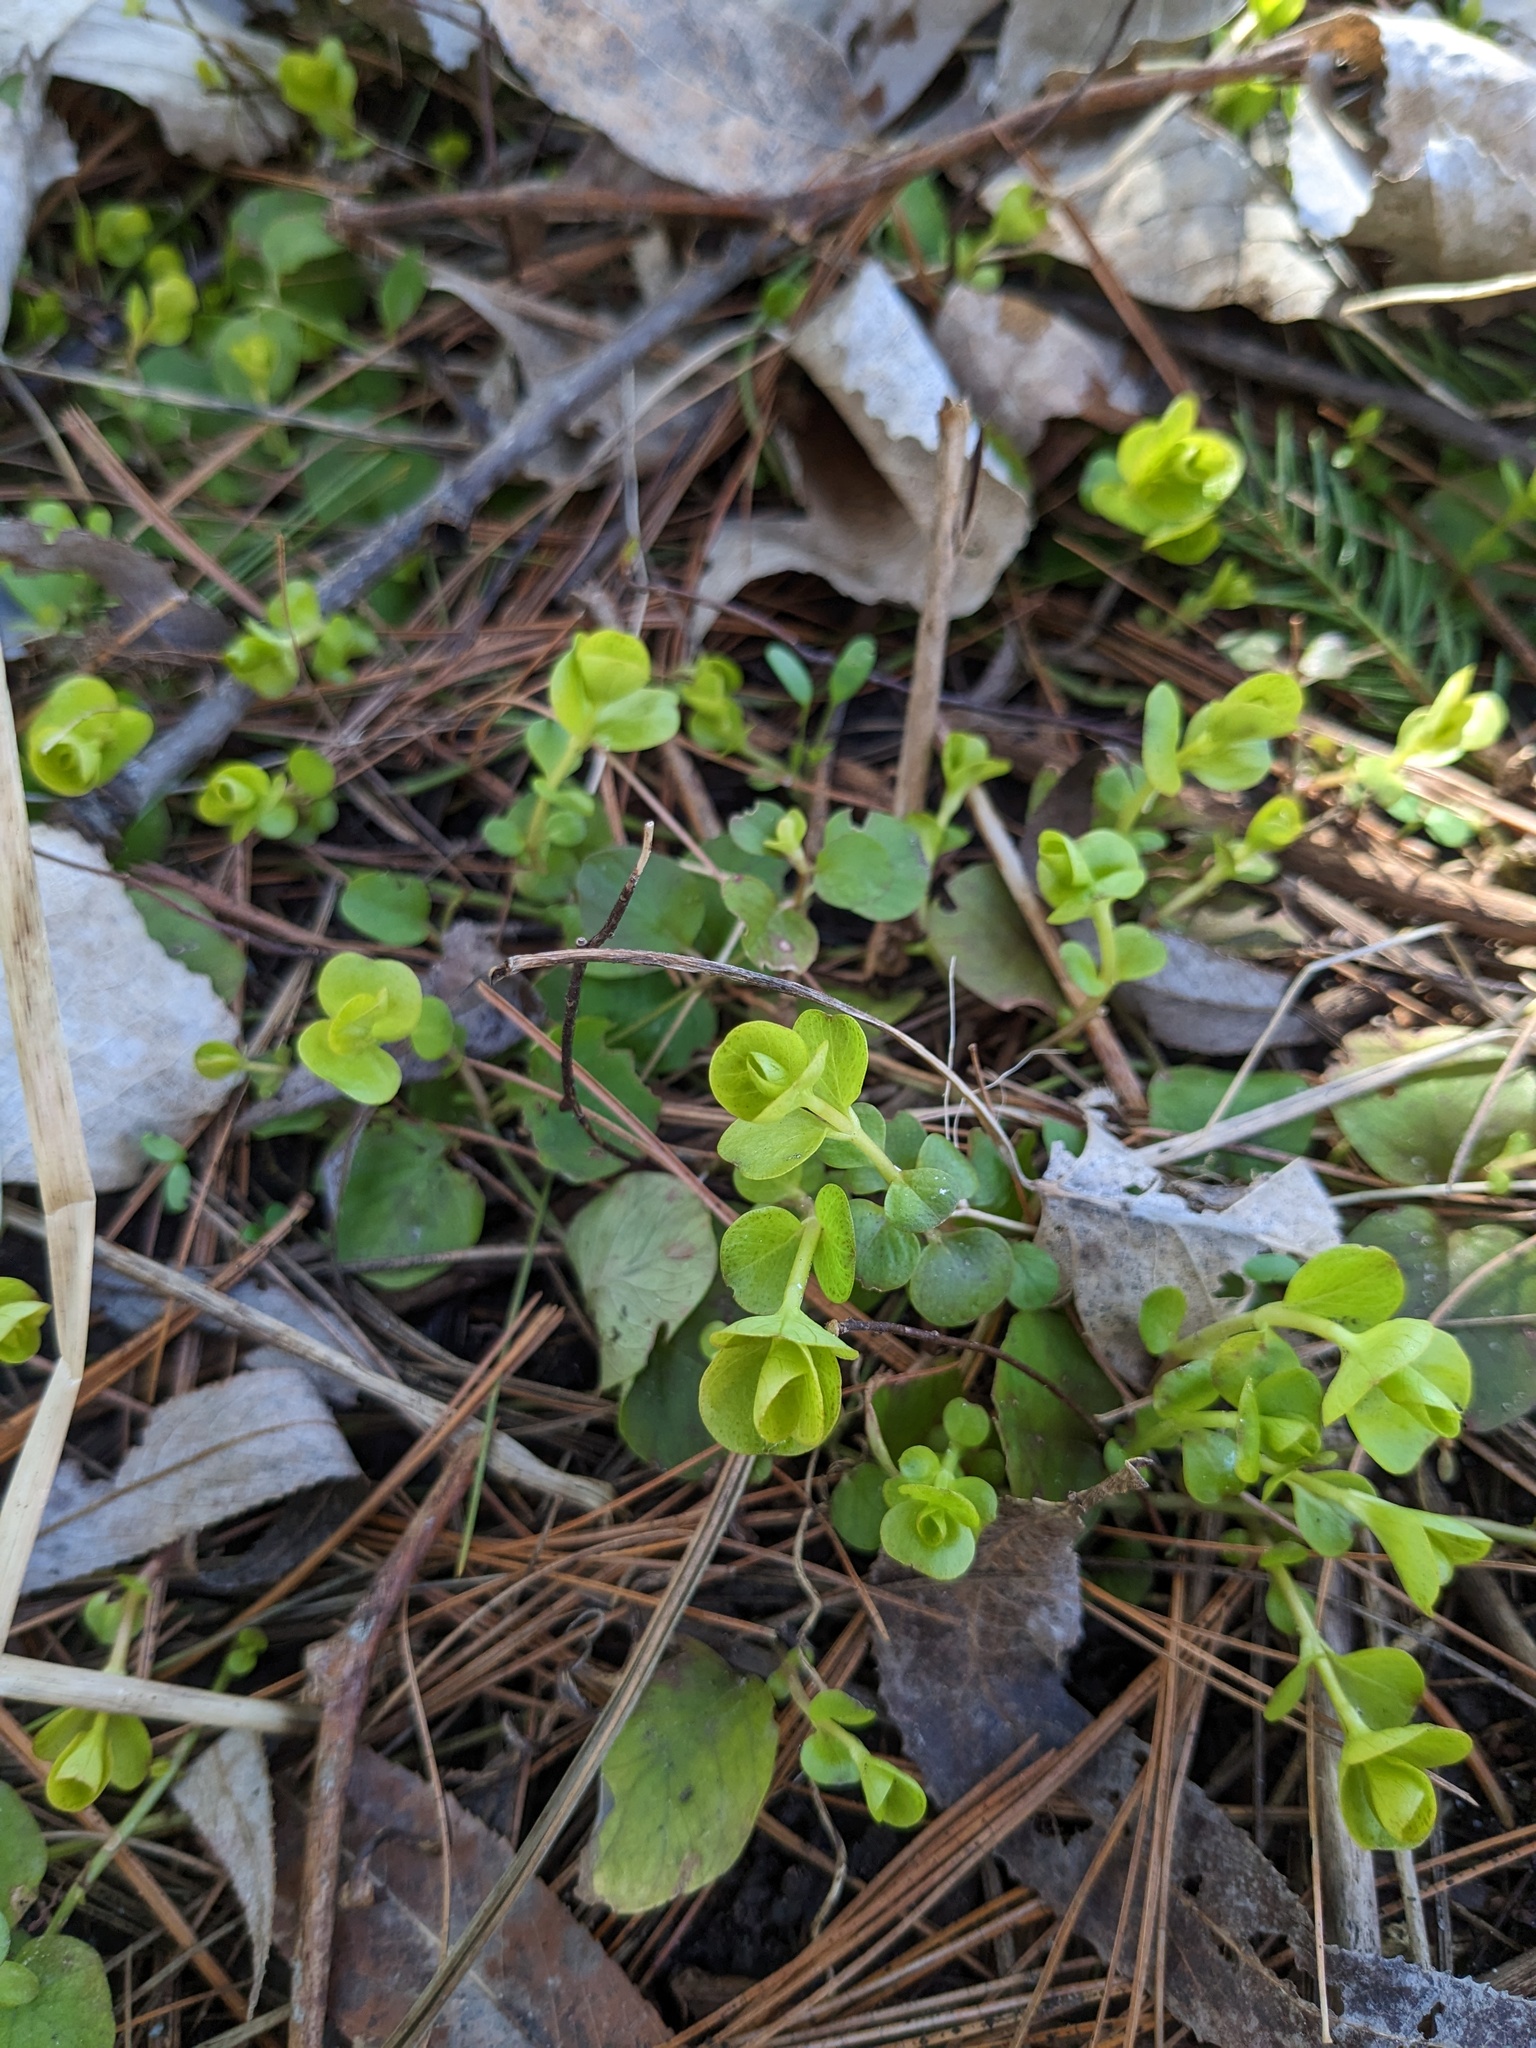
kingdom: Plantae
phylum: Tracheophyta
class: Magnoliopsida
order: Ericales
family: Primulaceae
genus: Lysimachia
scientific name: Lysimachia nummularia
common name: Moneywort
